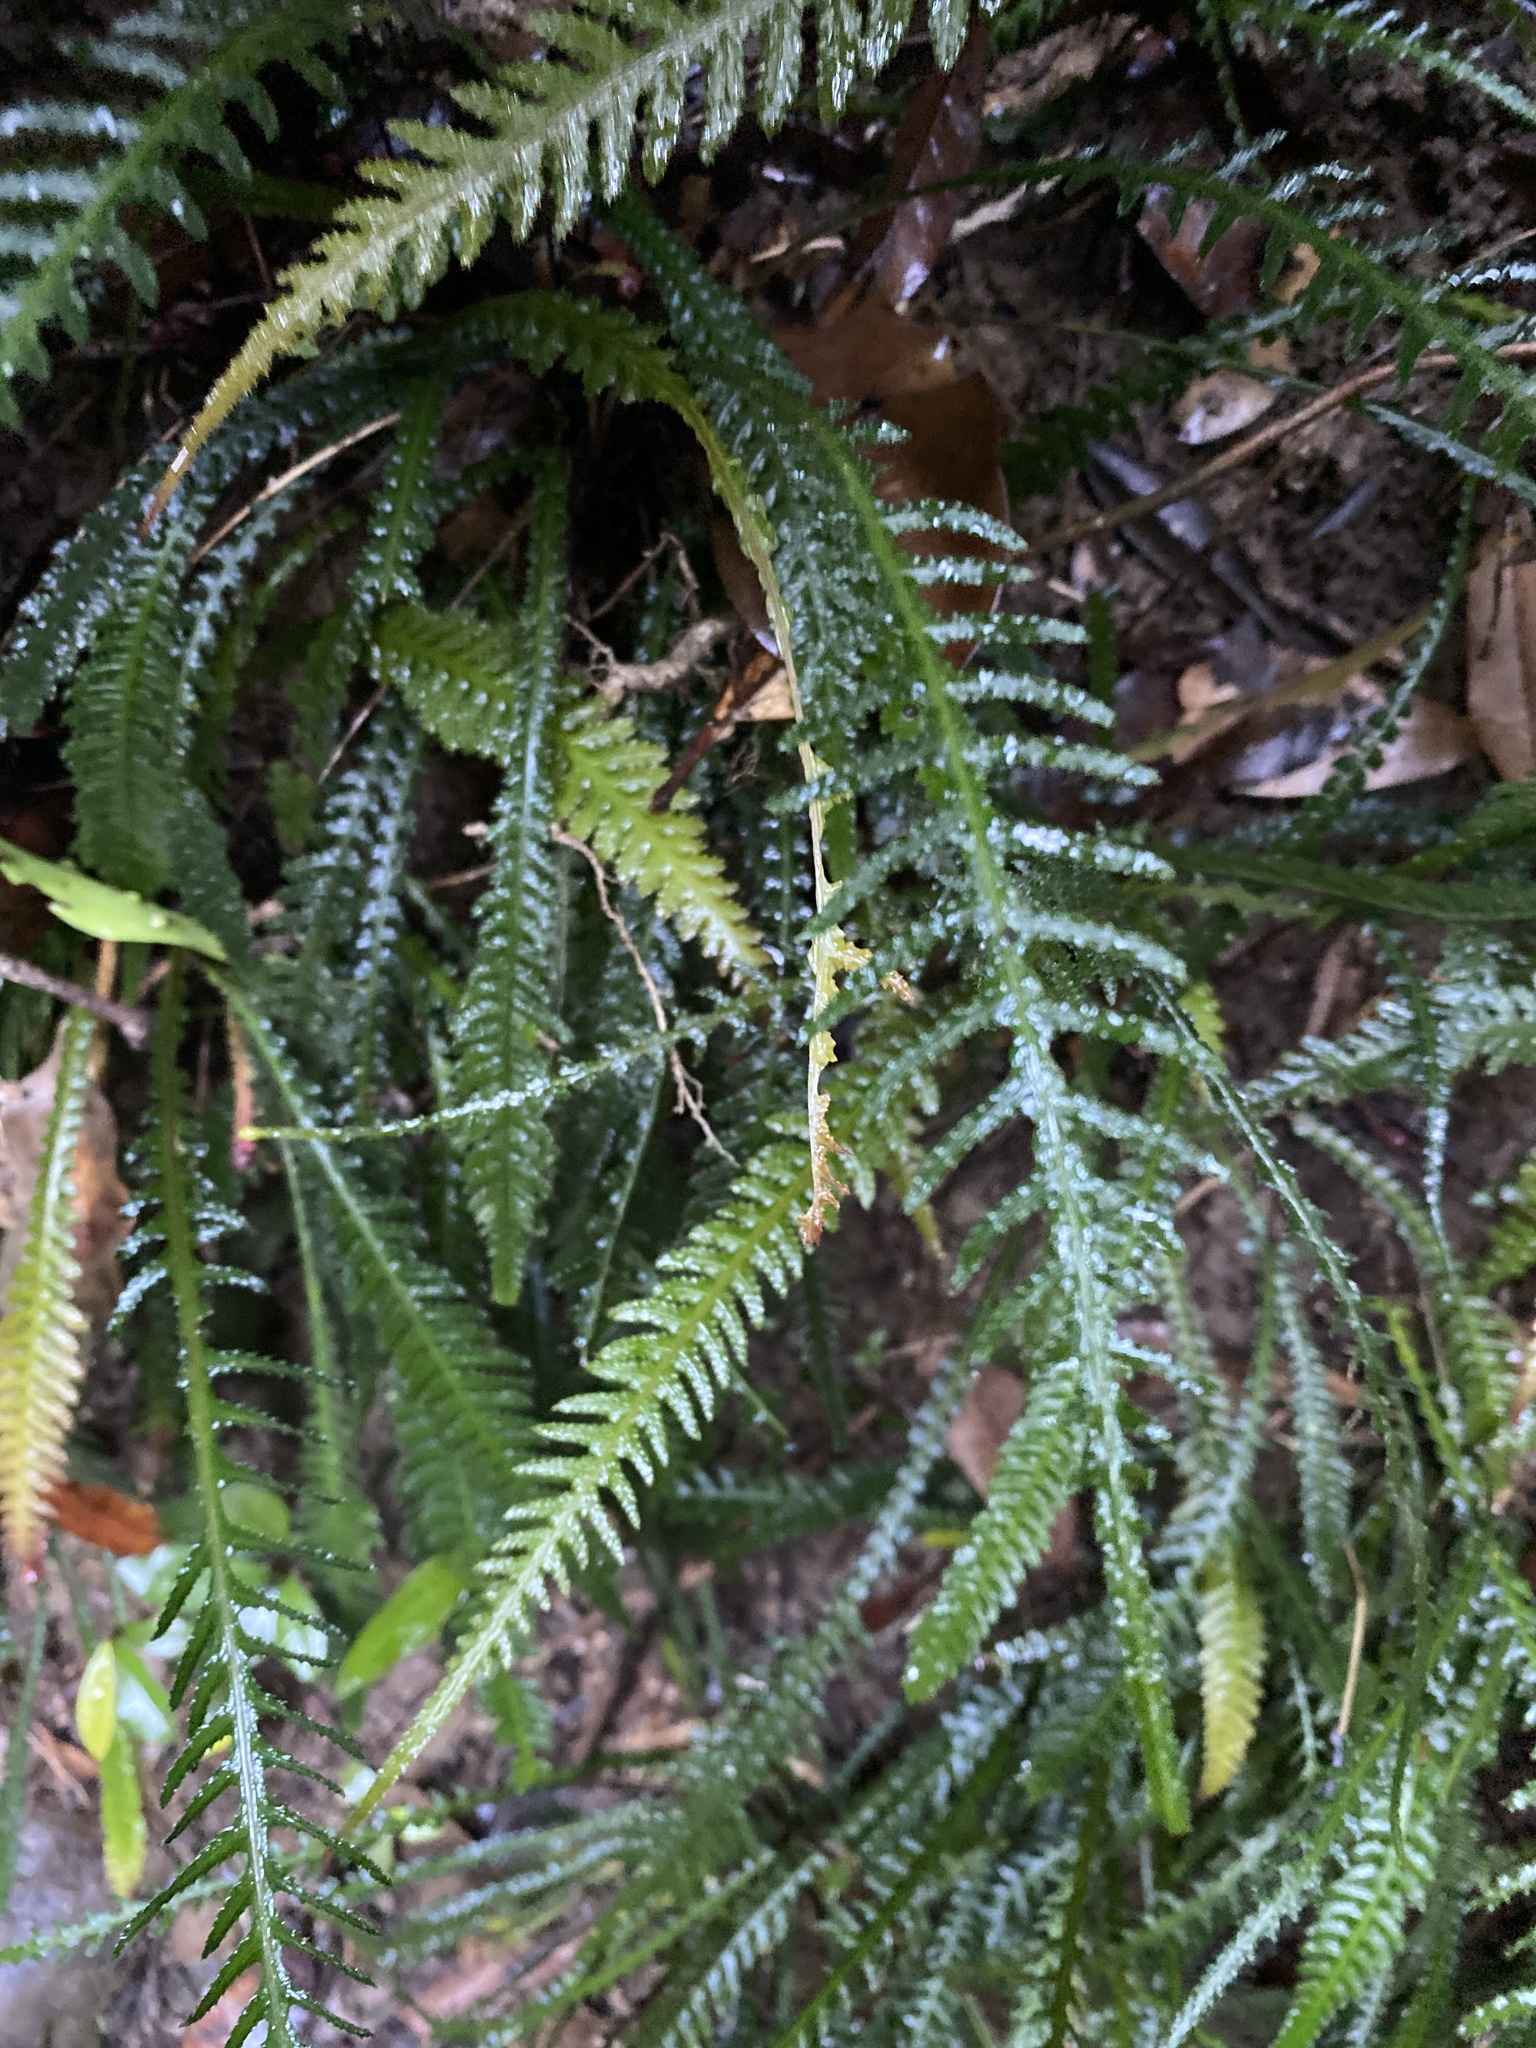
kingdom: Plantae
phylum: Tracheophyta
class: Polypodiopsida
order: Polypodiales
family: Blechnaceae
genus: Doodia
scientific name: Doodia caudata
